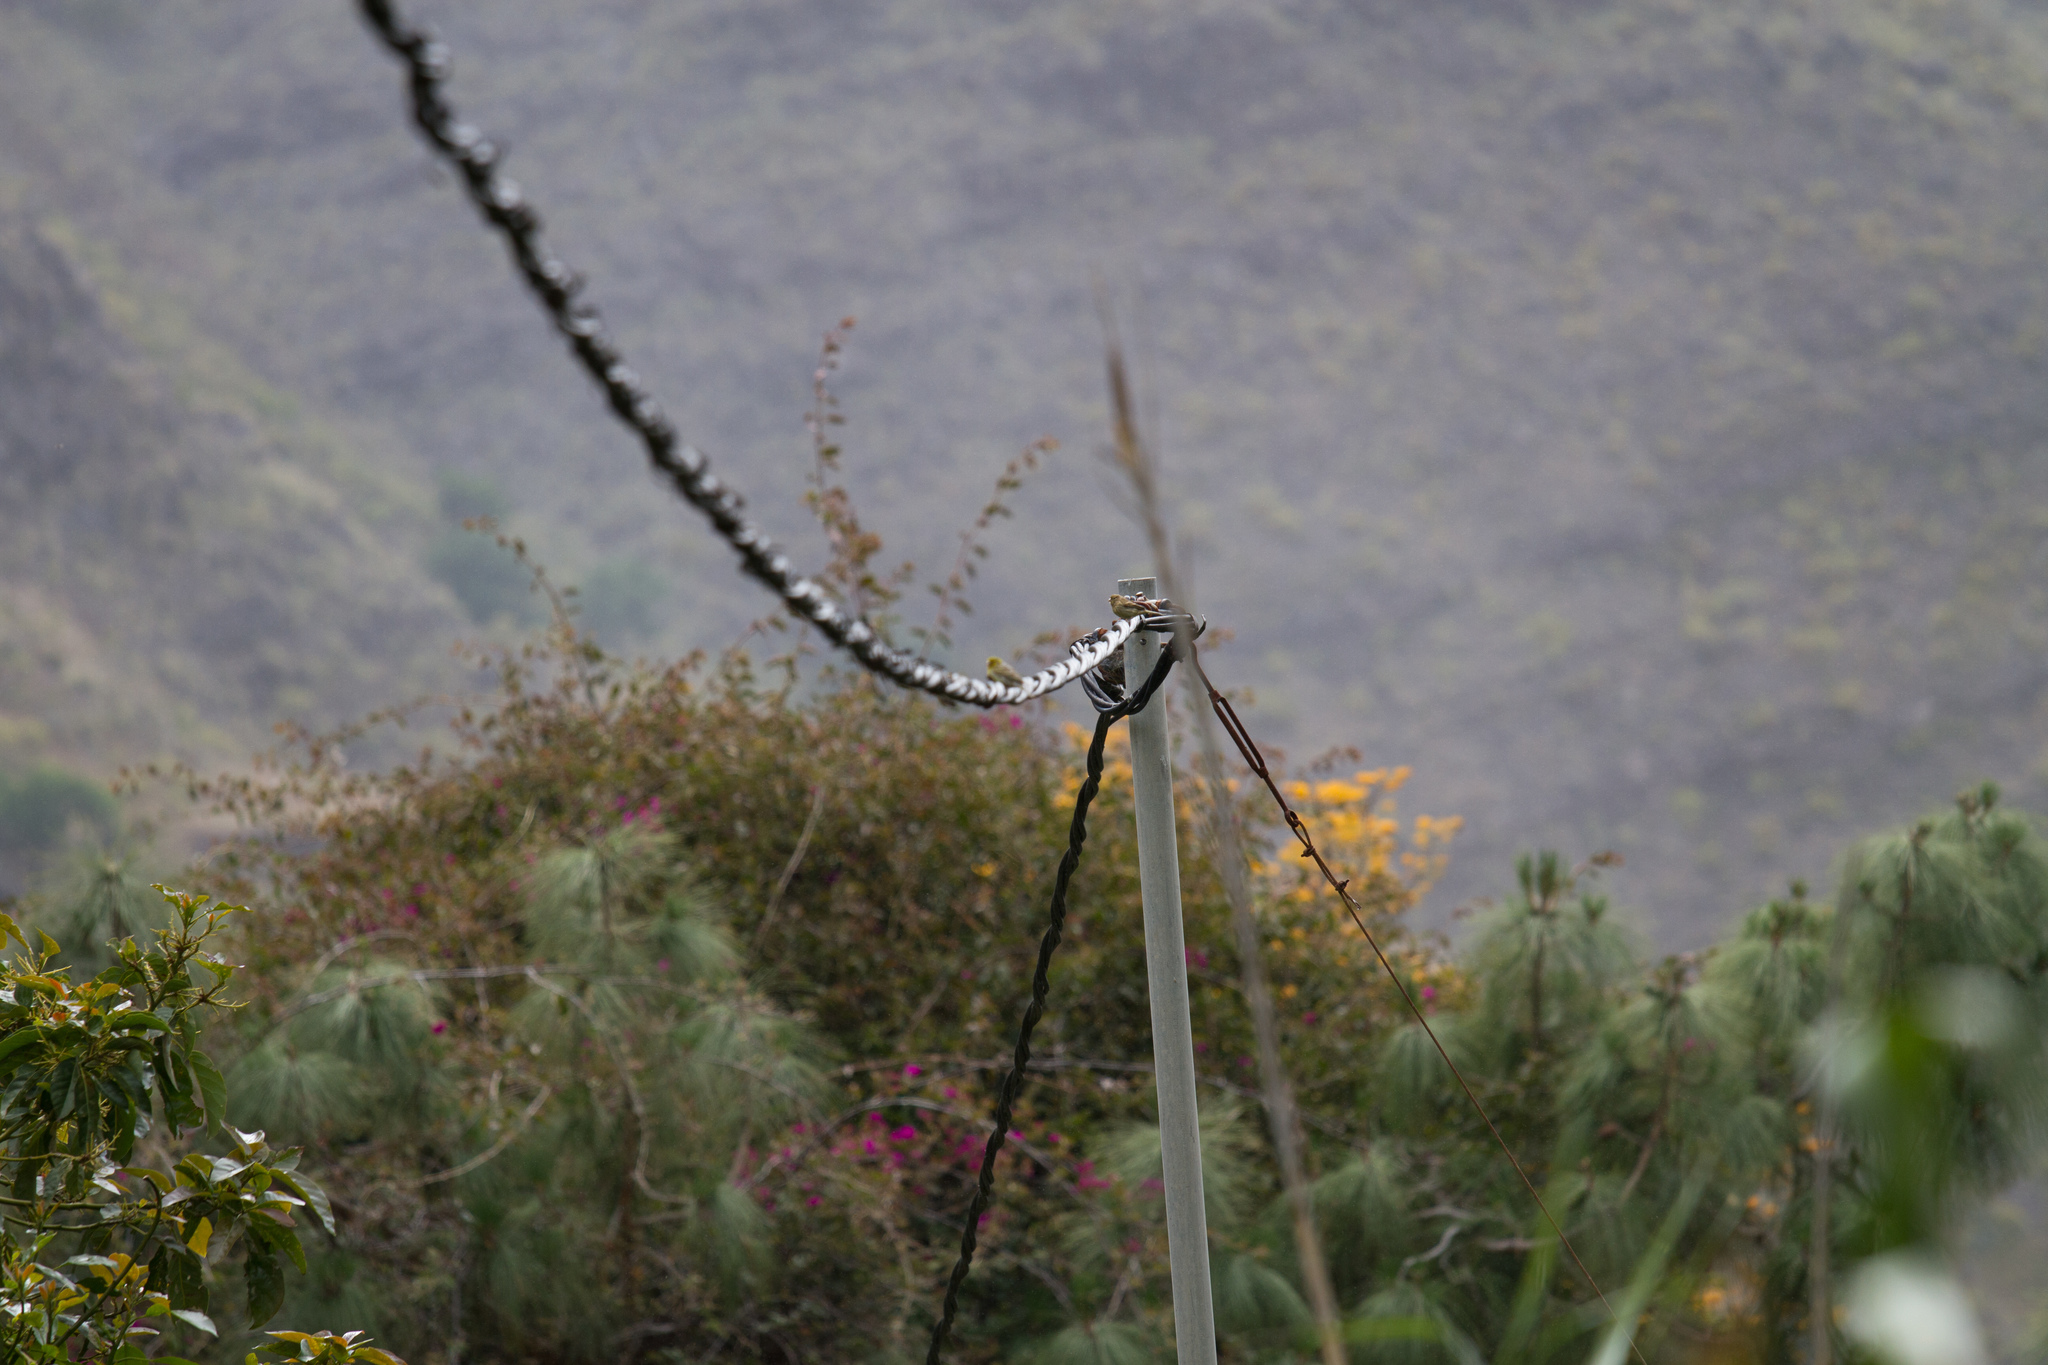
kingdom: Animalia
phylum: Chordata
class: Aves
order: Passeriformes
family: Fringillidae
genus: Serinus
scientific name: Serinus canaria
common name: Atlantic canary
